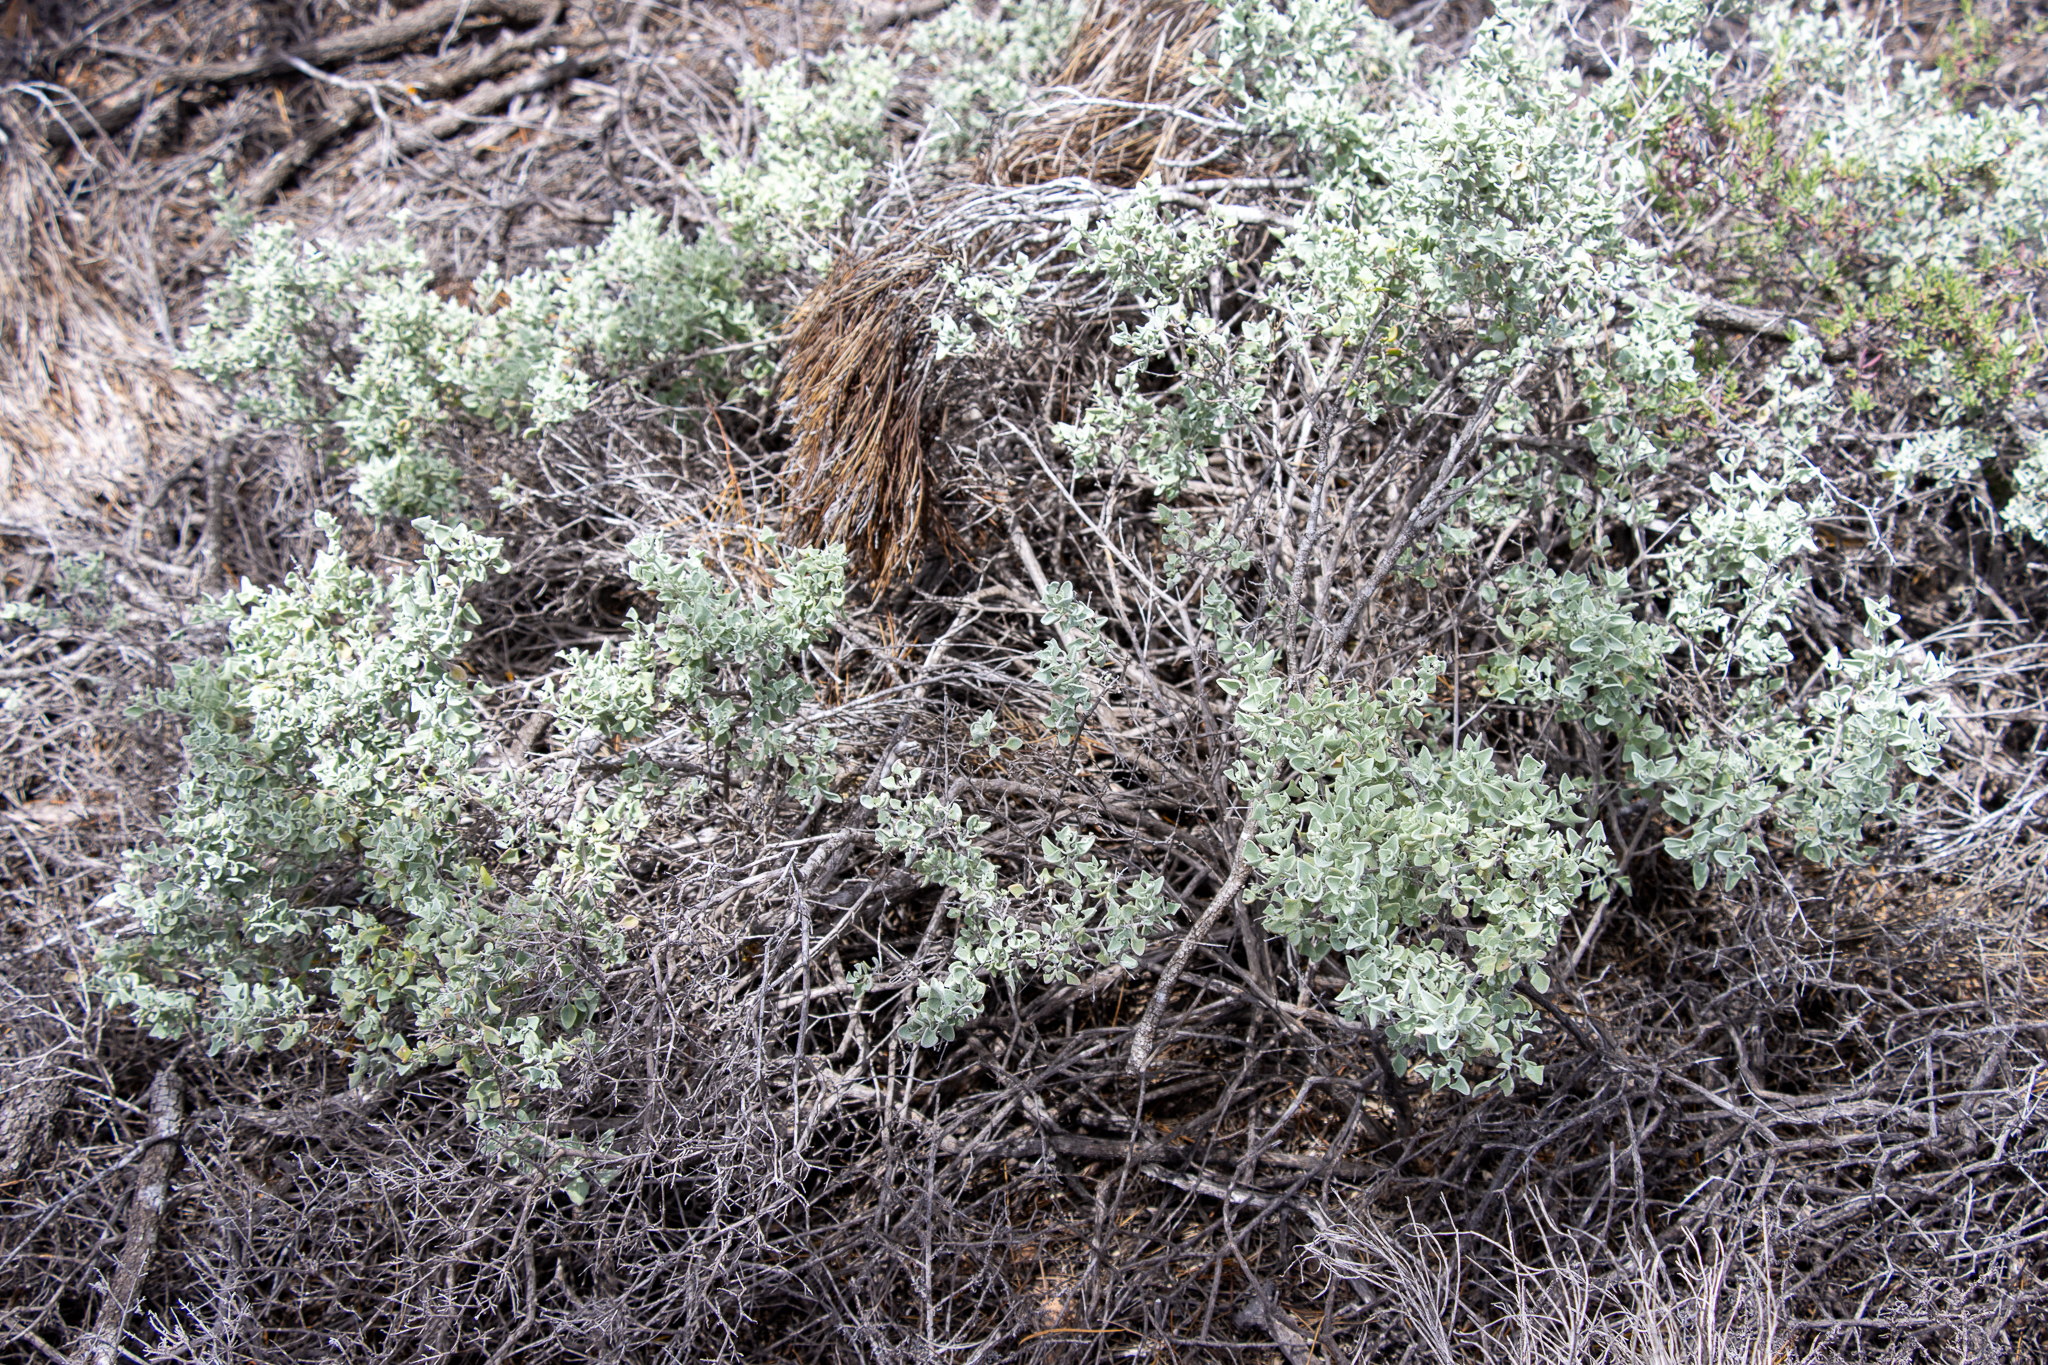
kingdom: Plantae
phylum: Tracheophyta
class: Magnoliopsida
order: Caryophyllales
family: Amaranthaceae
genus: Chenopodium
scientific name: Chenopodium spinescens
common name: Berry-saltbush
